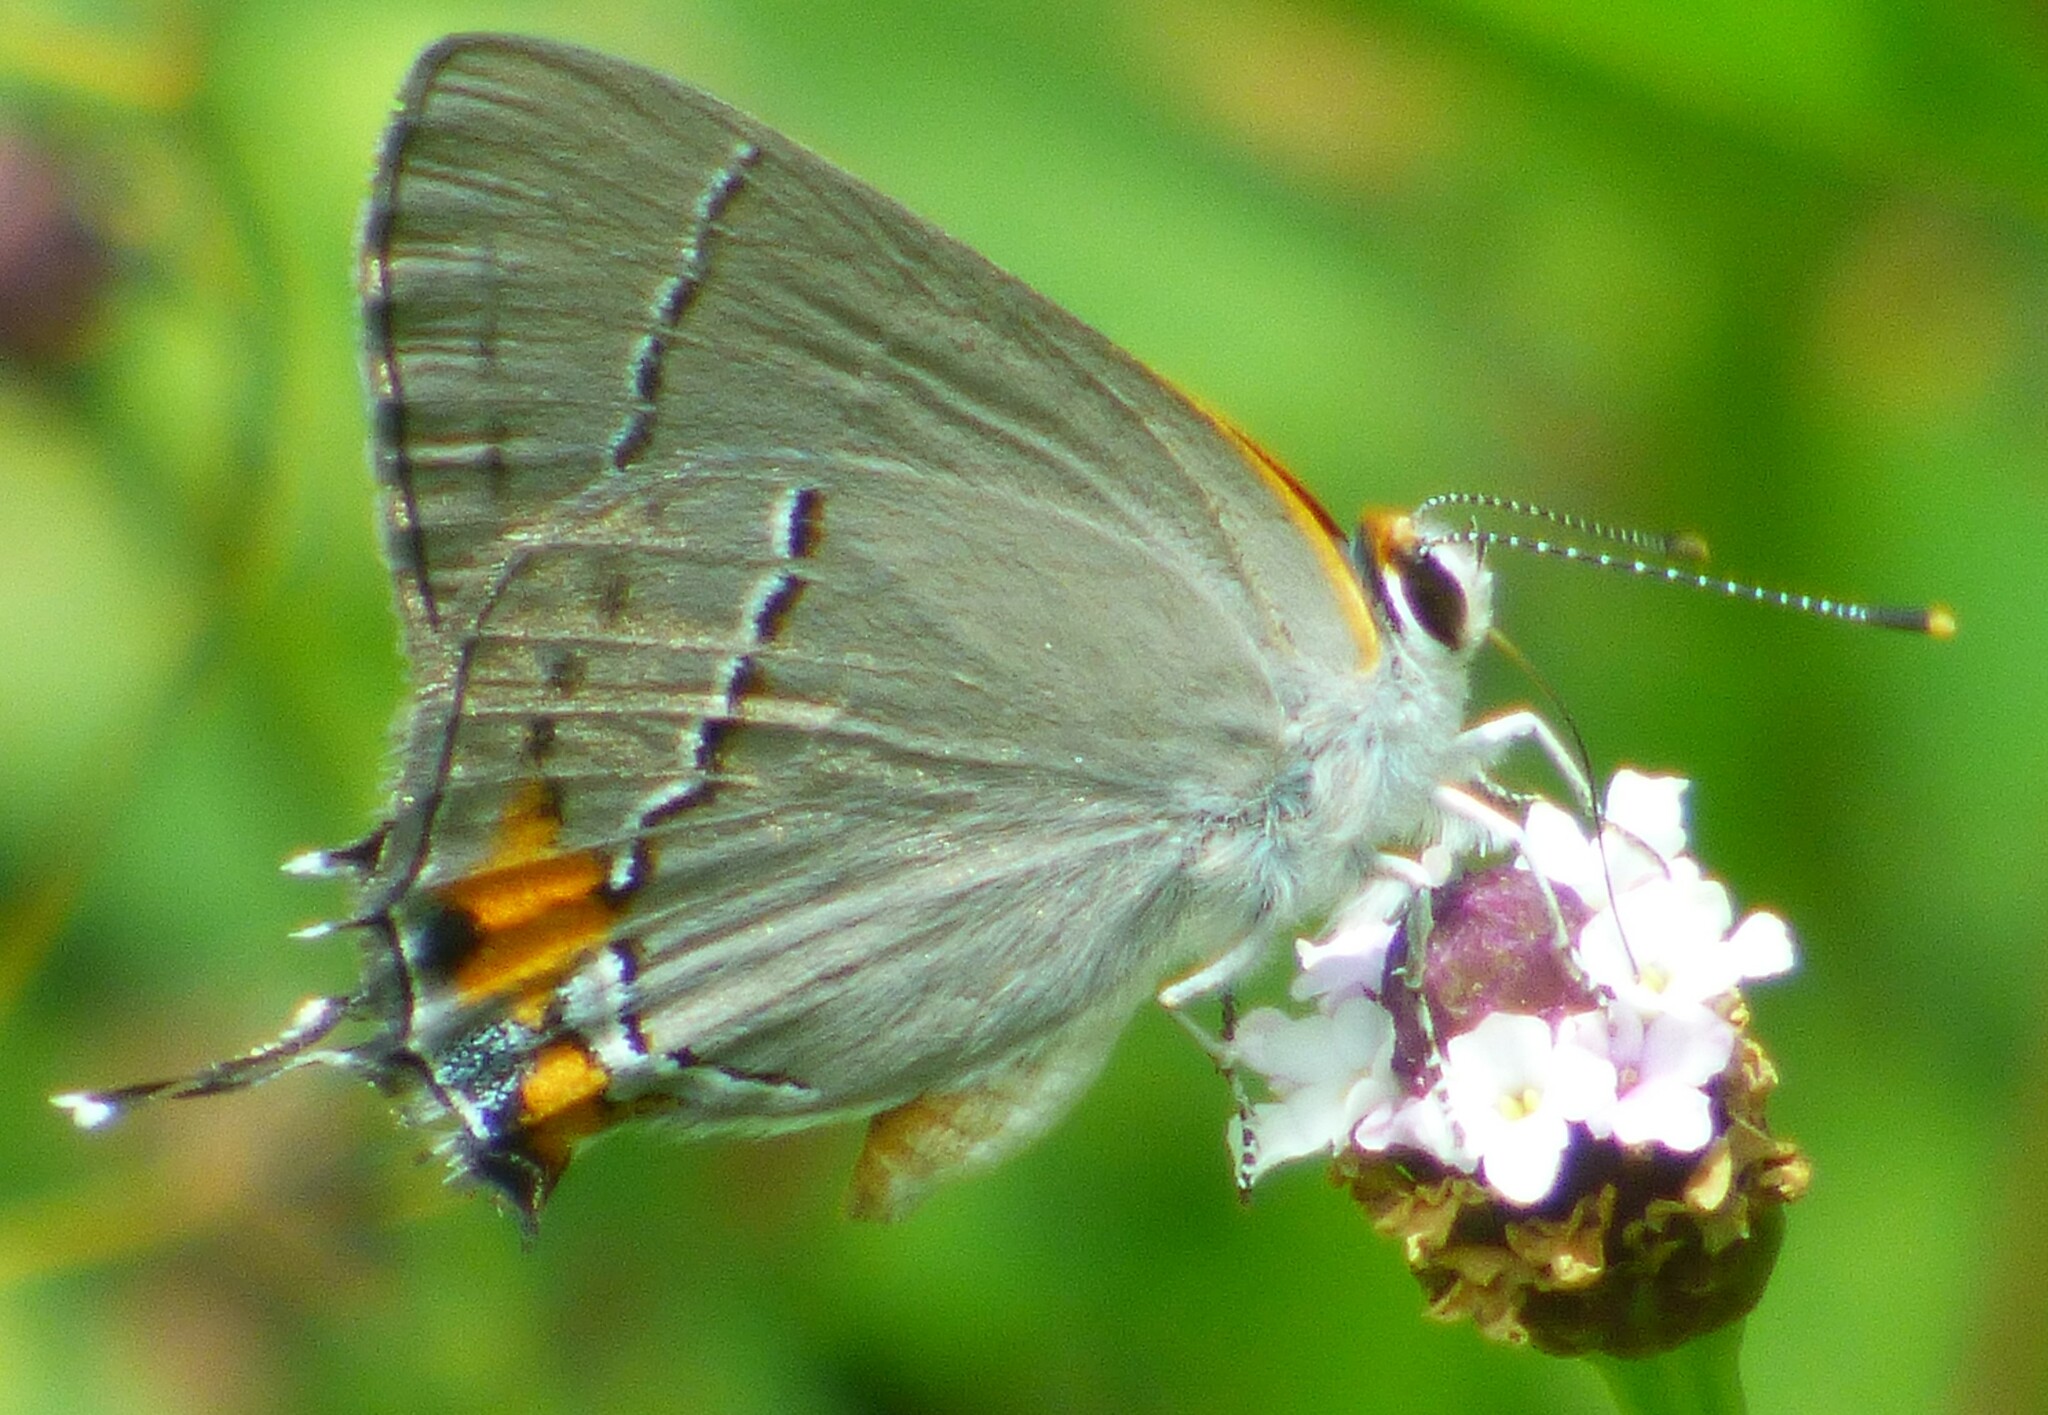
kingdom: Animalia
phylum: Arthropoda
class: Insecta
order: Lepidoptera
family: Lycaenidae
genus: Strymon
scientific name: Strymon melinus
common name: Gray hairstreak
